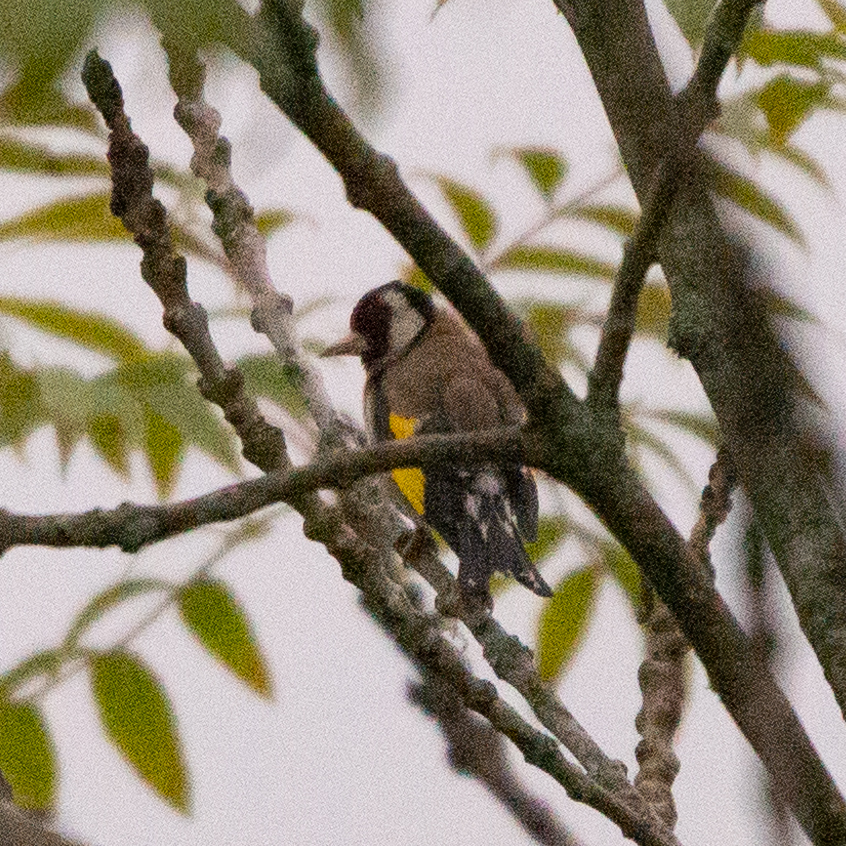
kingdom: Animalia
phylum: Chordata
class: Aves
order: Passeriformes
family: Fringillidae
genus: Carduelis
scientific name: Carduelis carduelis
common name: European goldfinch
